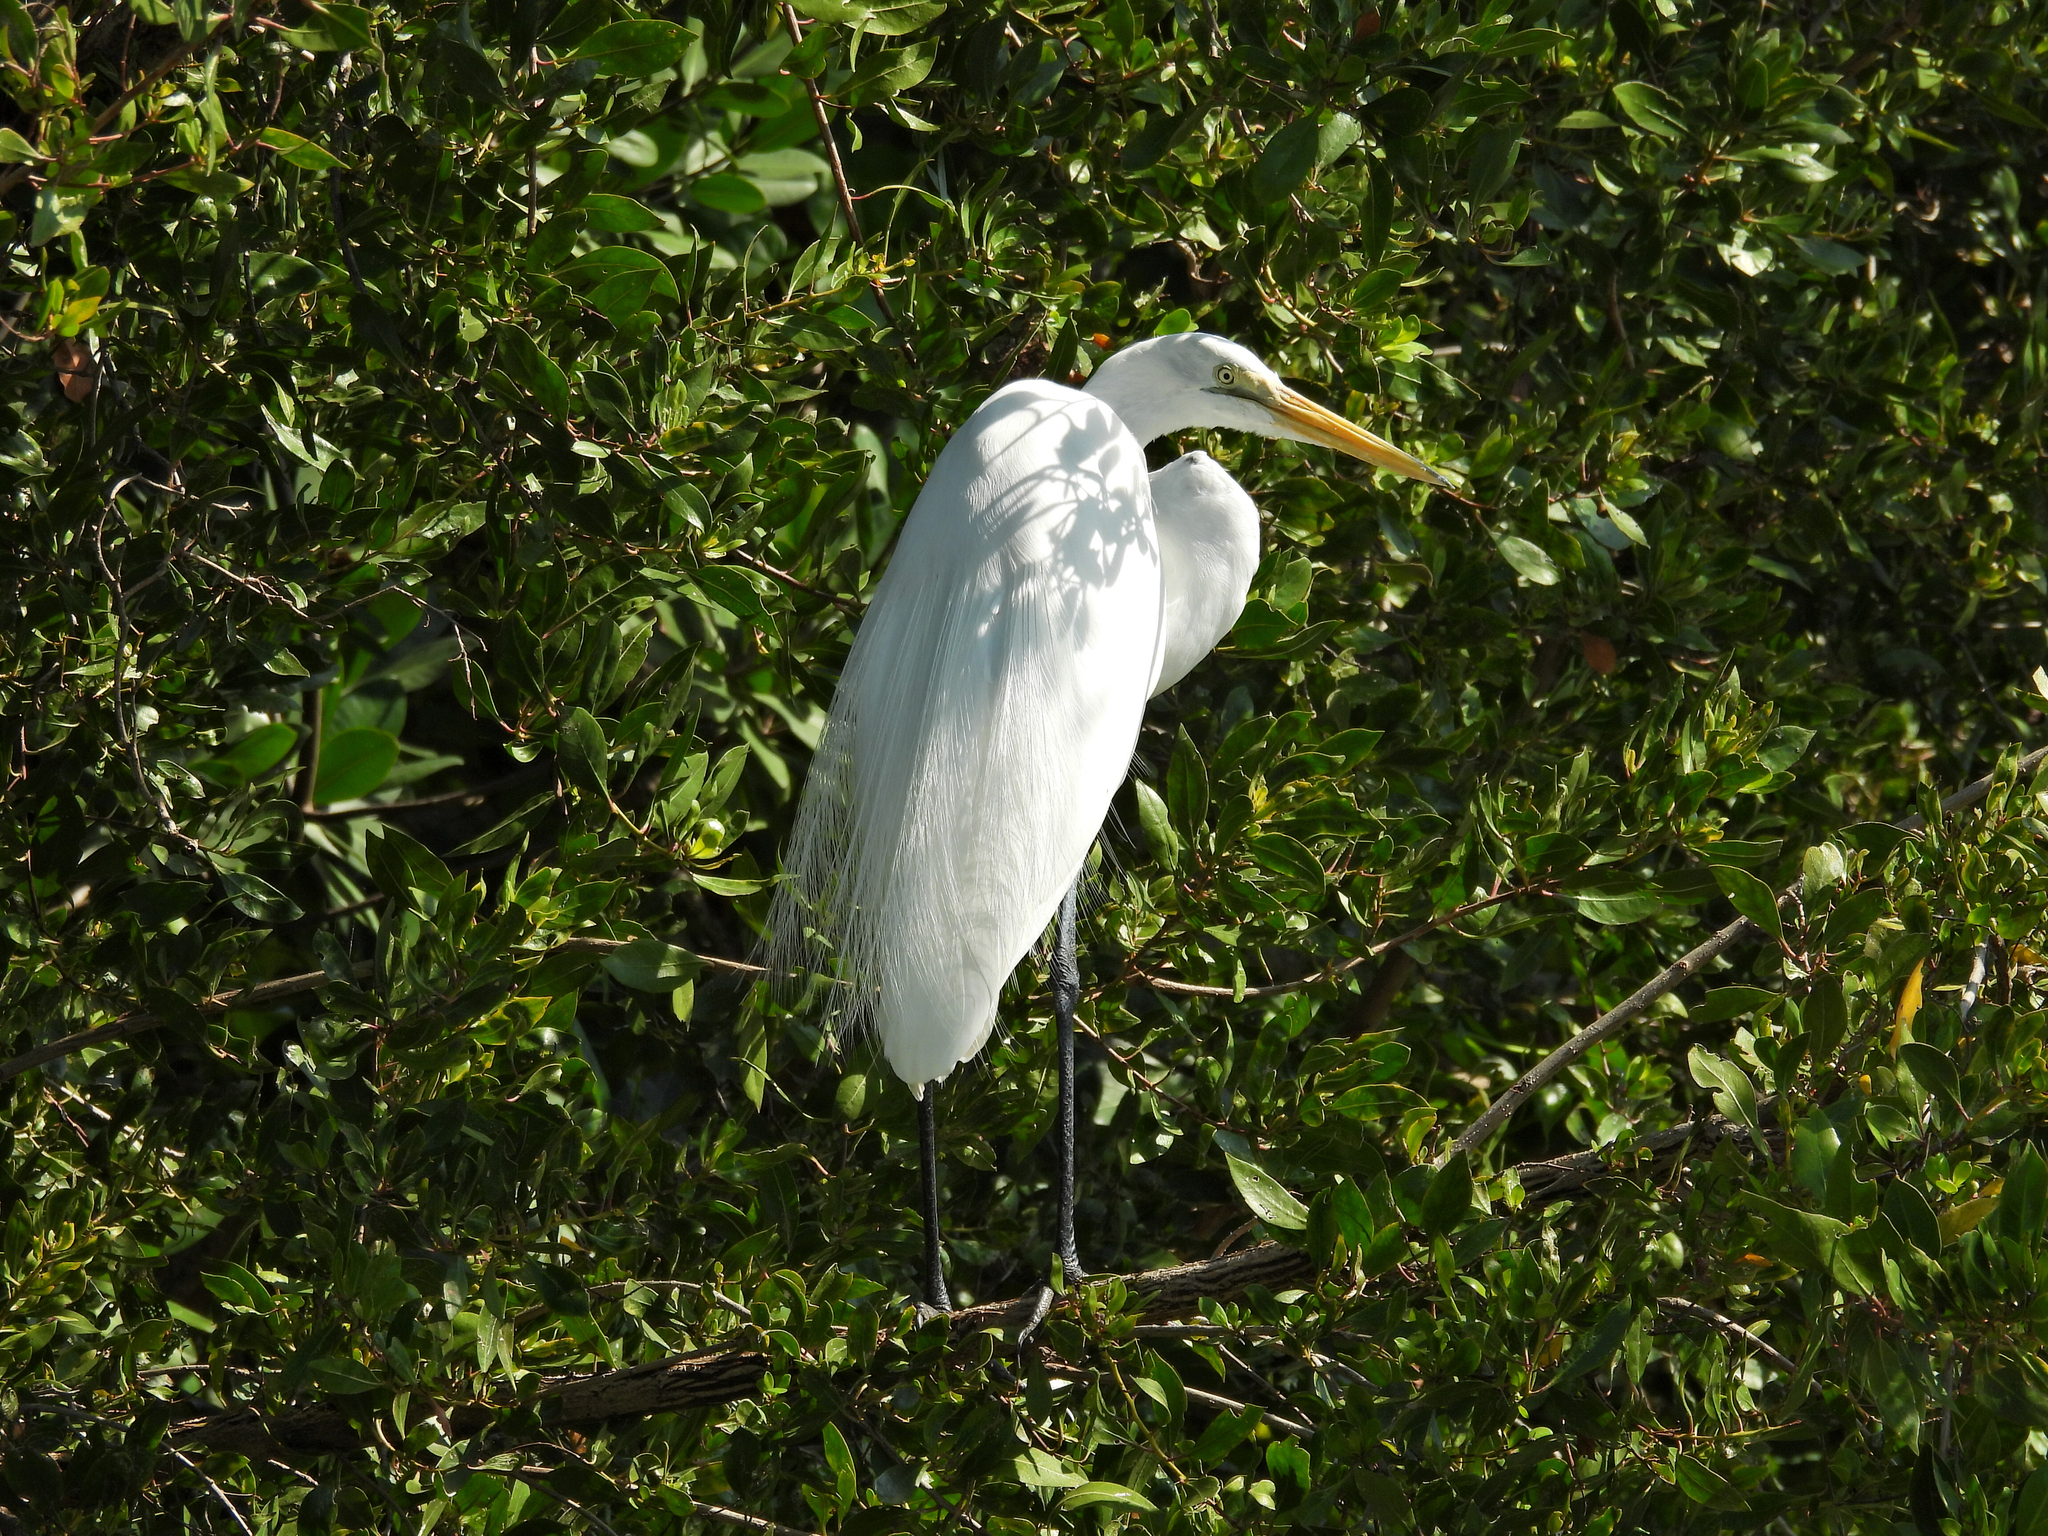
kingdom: Animalia
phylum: Chordata
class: Aves
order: Pelecaniformes
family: Ardeidae
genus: Ardea
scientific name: Ardea alba
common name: Great egret
